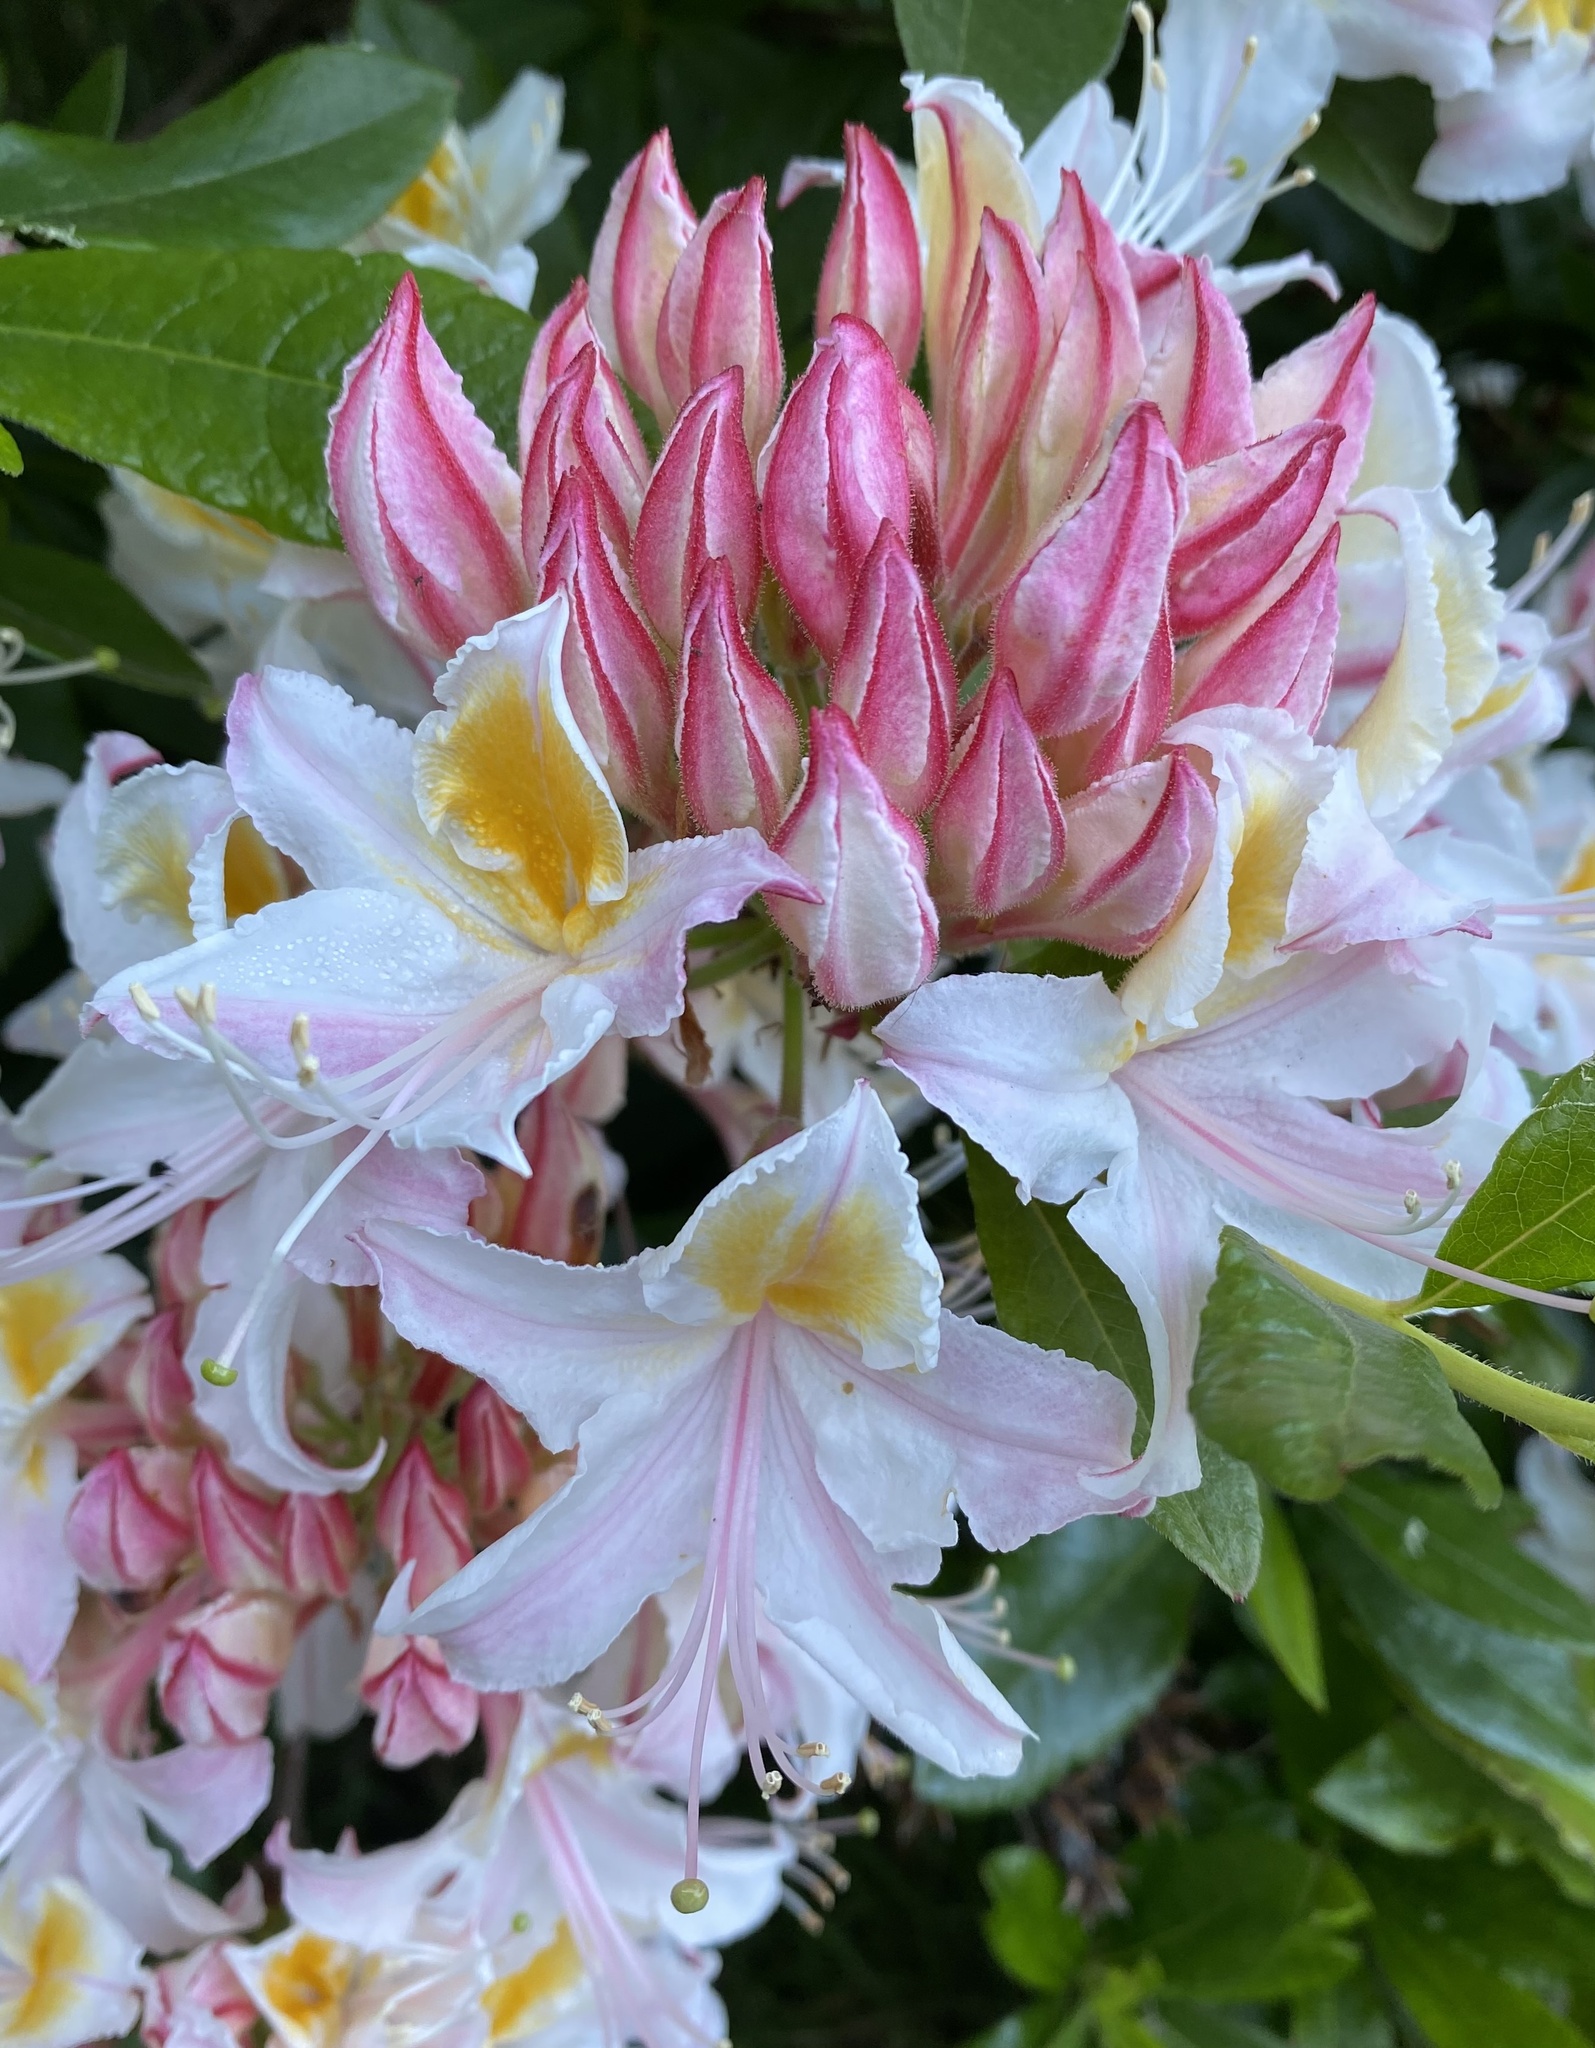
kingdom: Plantae
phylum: Tracheophyta
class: Magnoliopsida
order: Ericales
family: Ericaceae
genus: Rhododendron
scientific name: Rhododendron occidentale
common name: Western azalea
